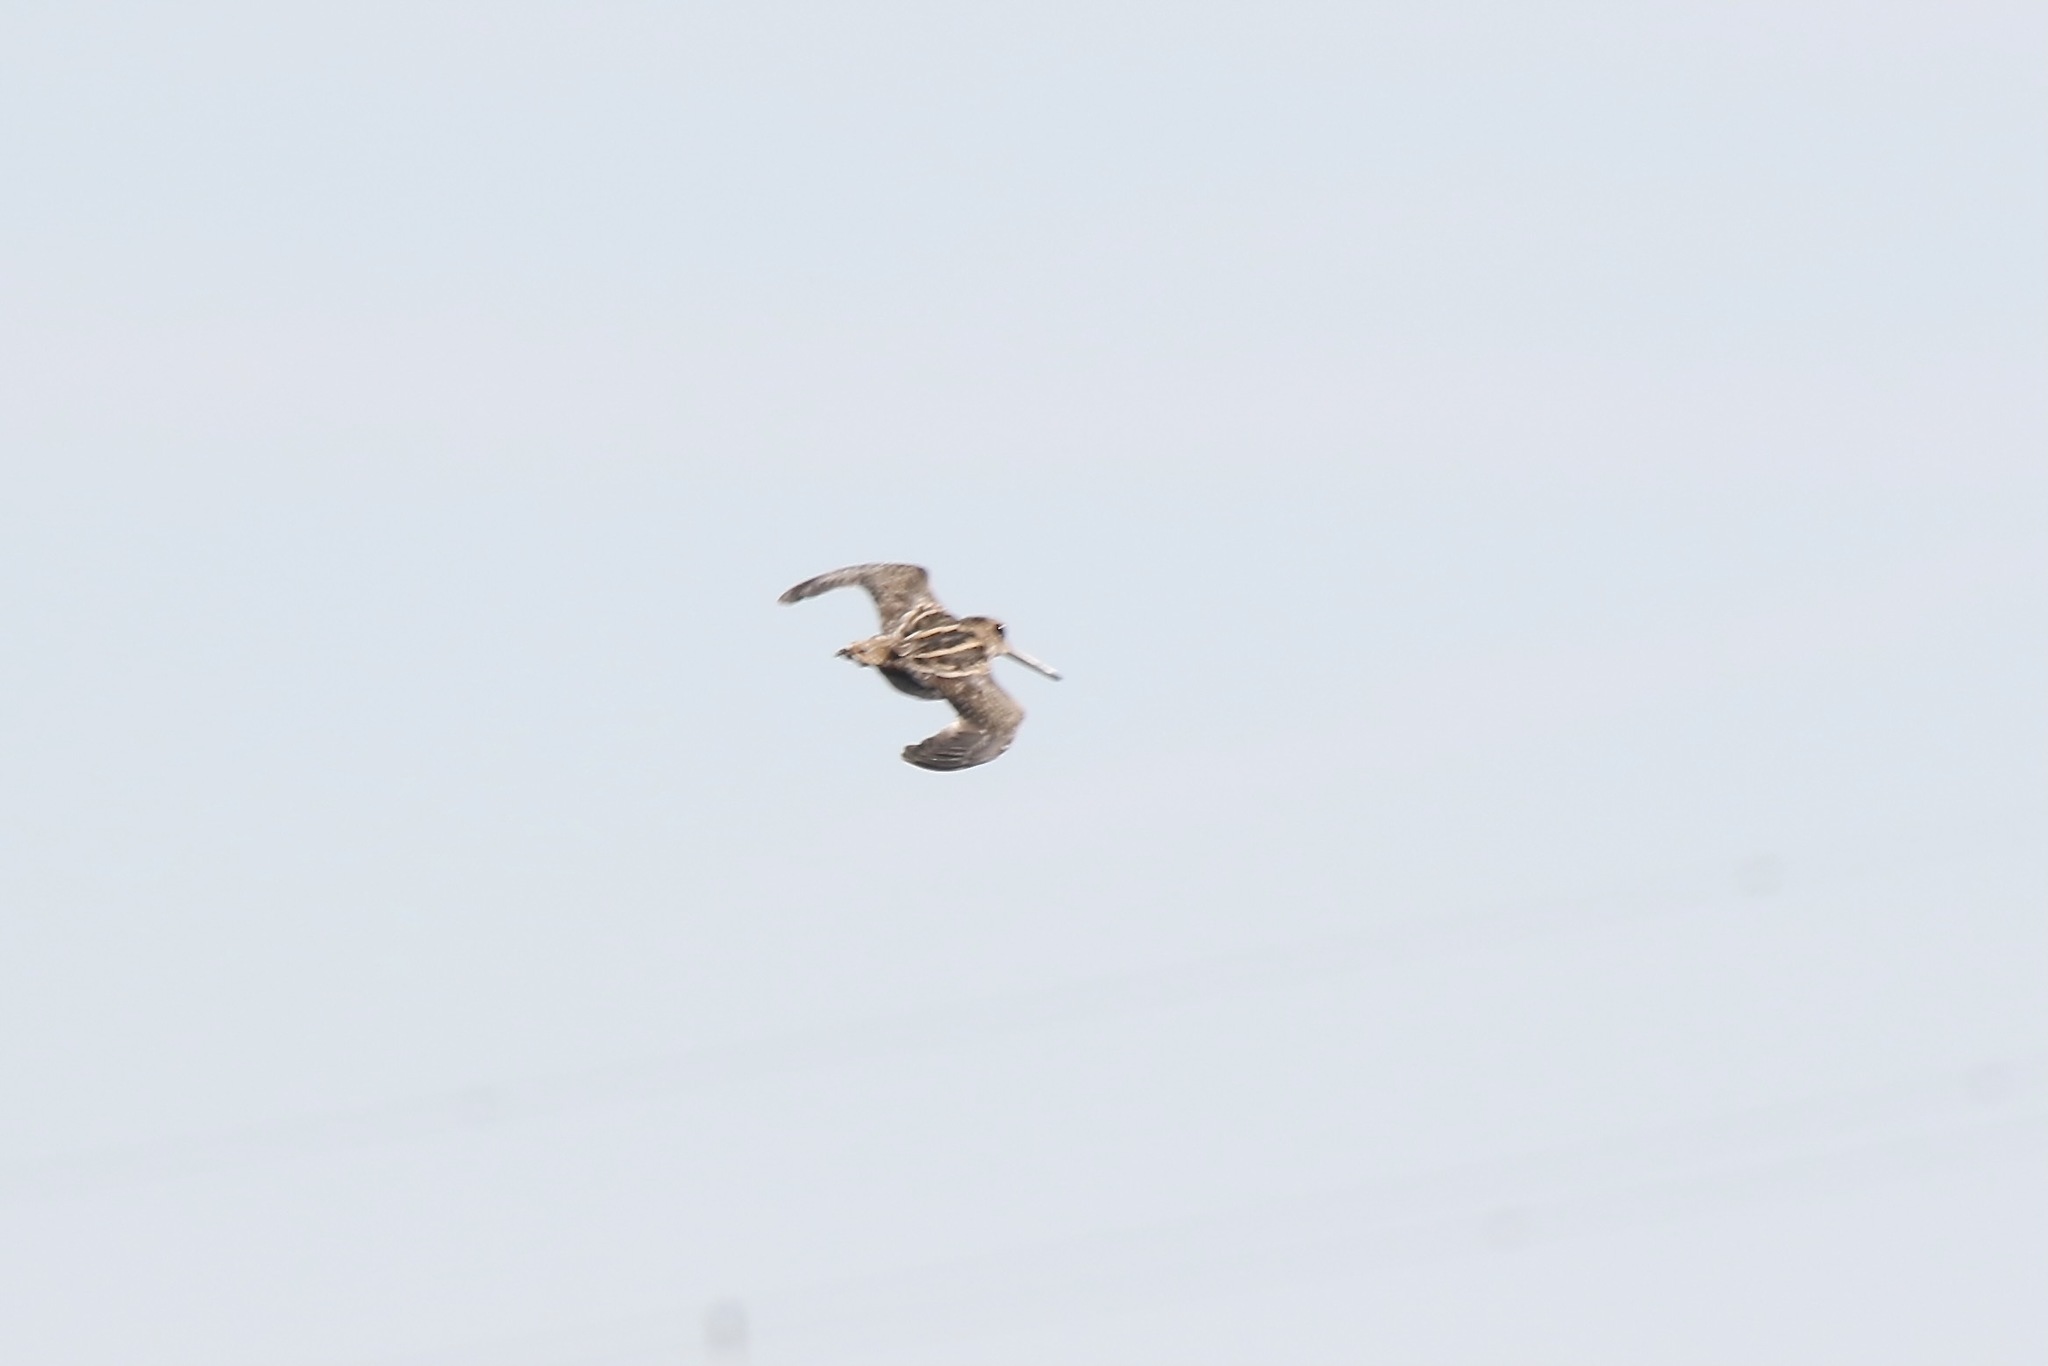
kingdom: Animalia
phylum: Chordata
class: Aves
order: Charadriiformes
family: Scolopacidae
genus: Gallinago
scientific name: Gallinago delicata
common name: Wilson's snipe
